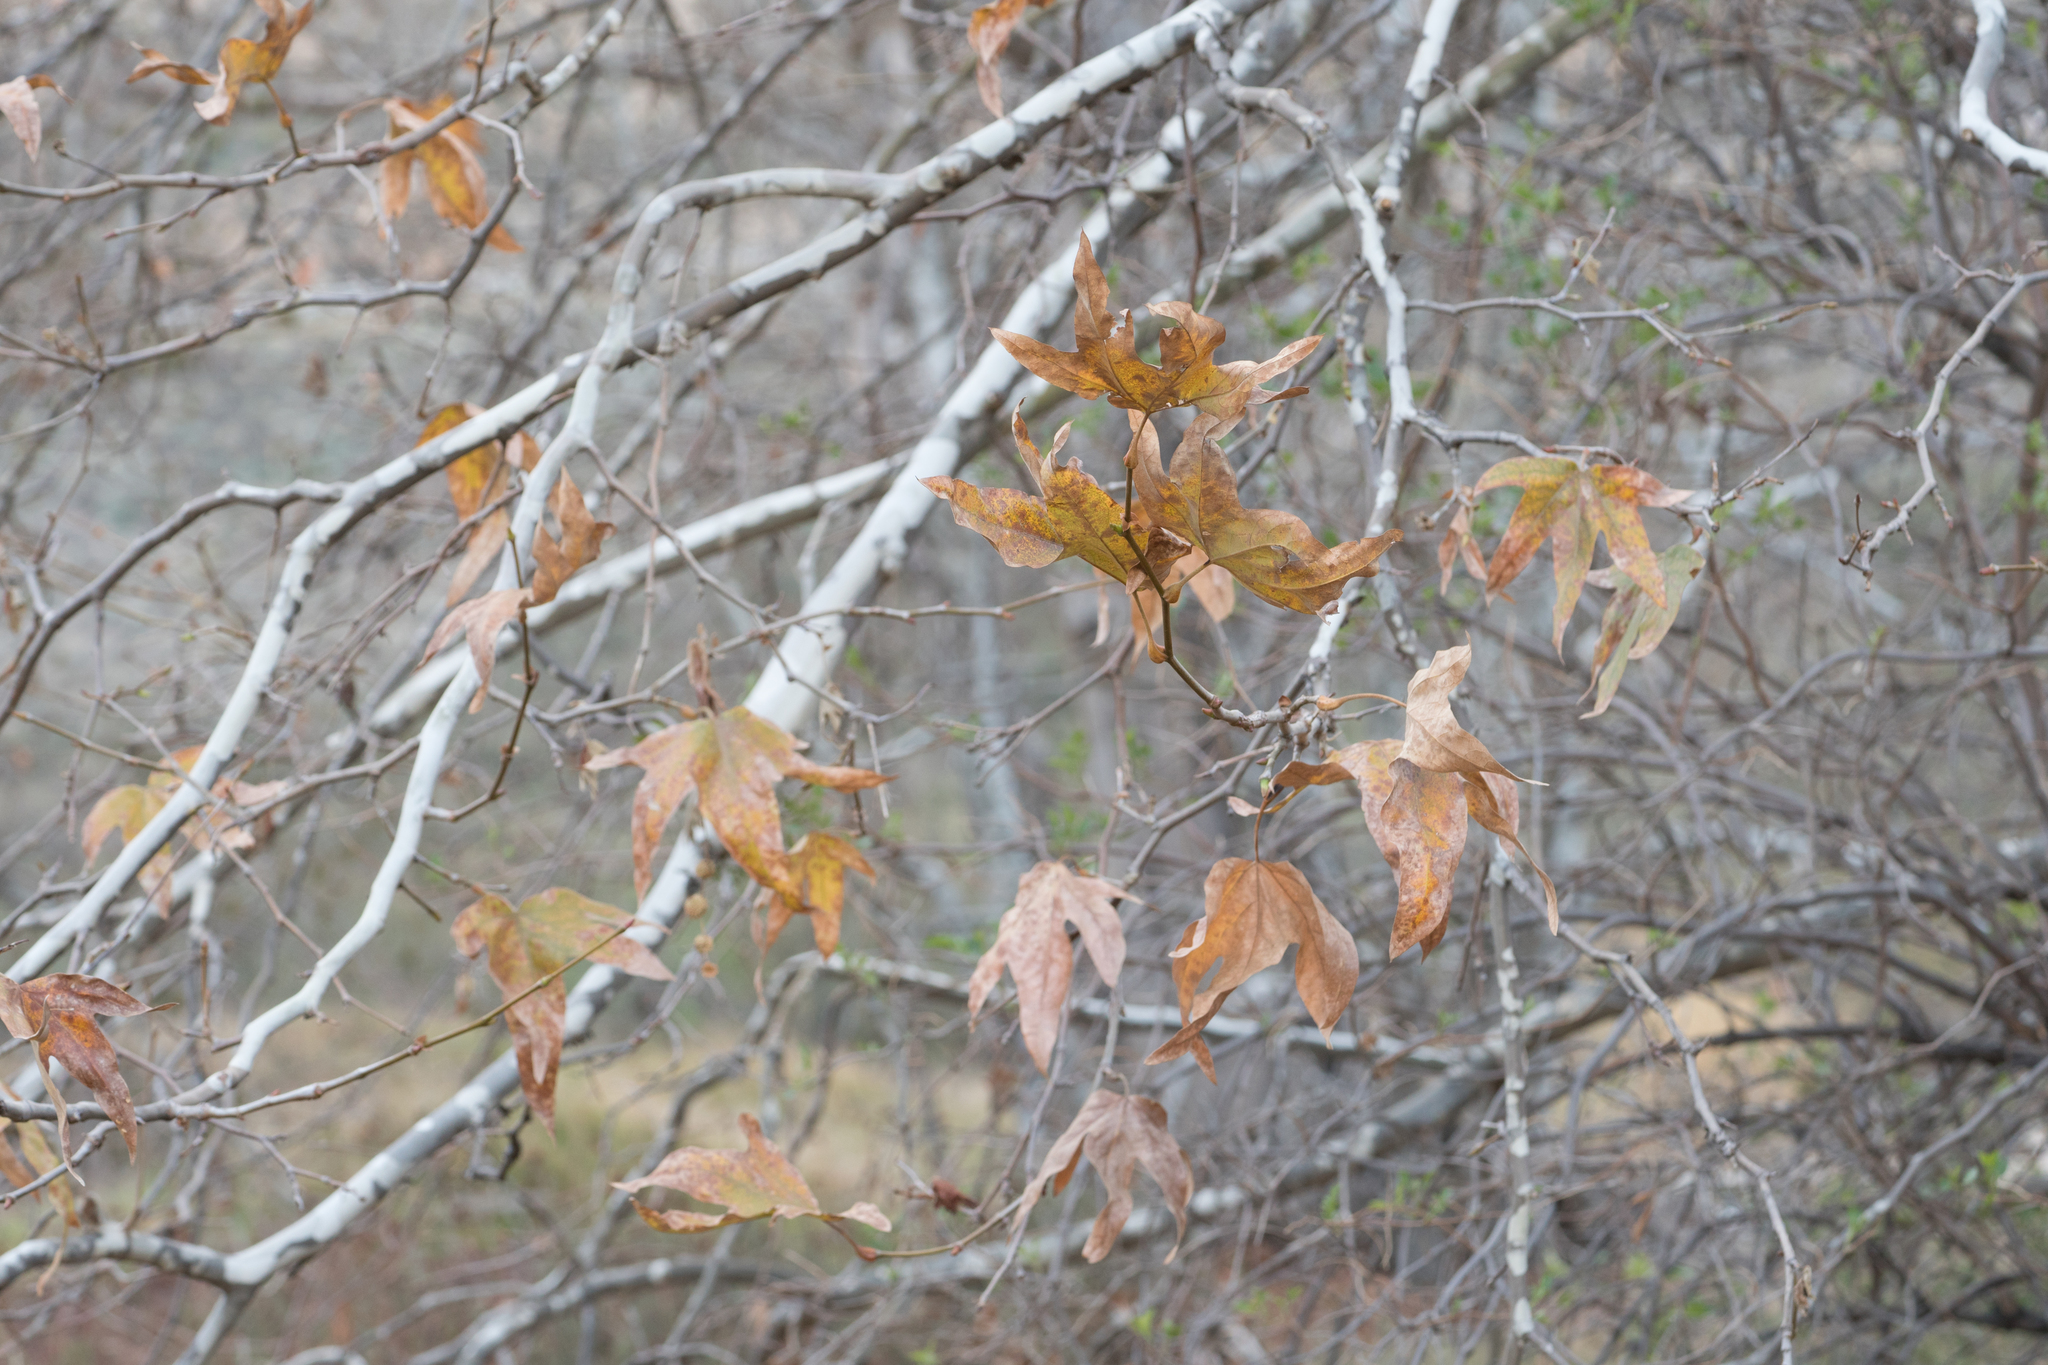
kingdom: Plantae
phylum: Tracheophyta
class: Magnoliopsida
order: Proteales
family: Platanaceae
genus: Platanus
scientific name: Platanus racemosa
